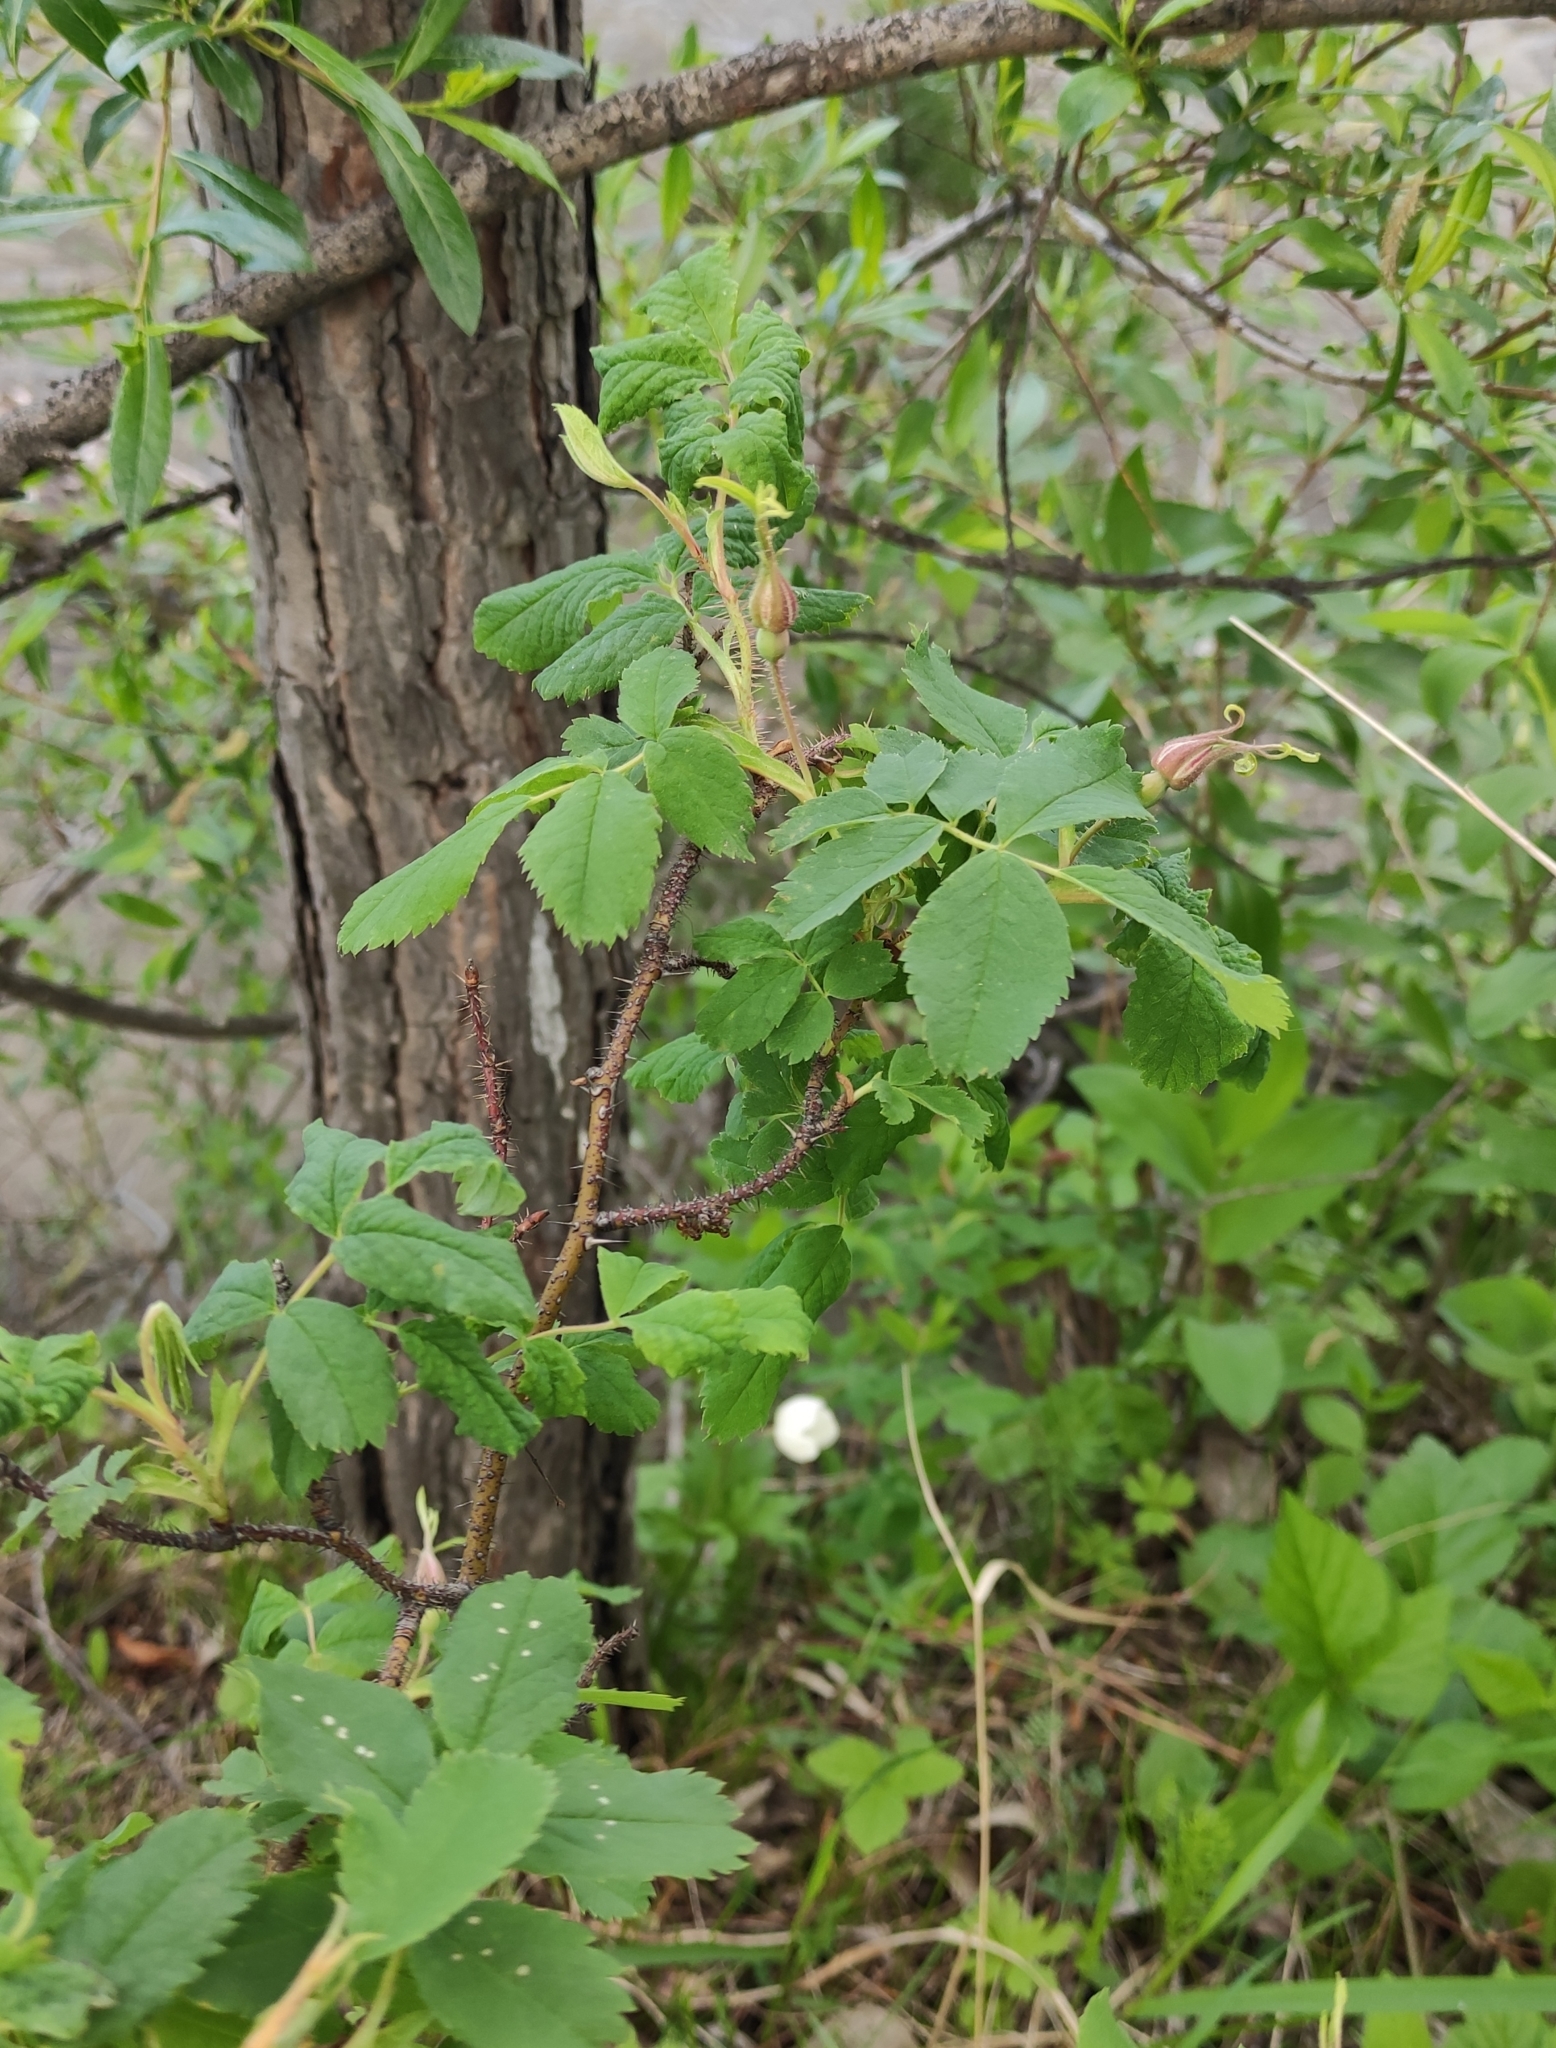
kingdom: Plantae
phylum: Tracheophyta
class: Magnoliopsida
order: Rosales
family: Rosaceae
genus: Rosa
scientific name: Rosa acicularis
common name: Prickly rose
